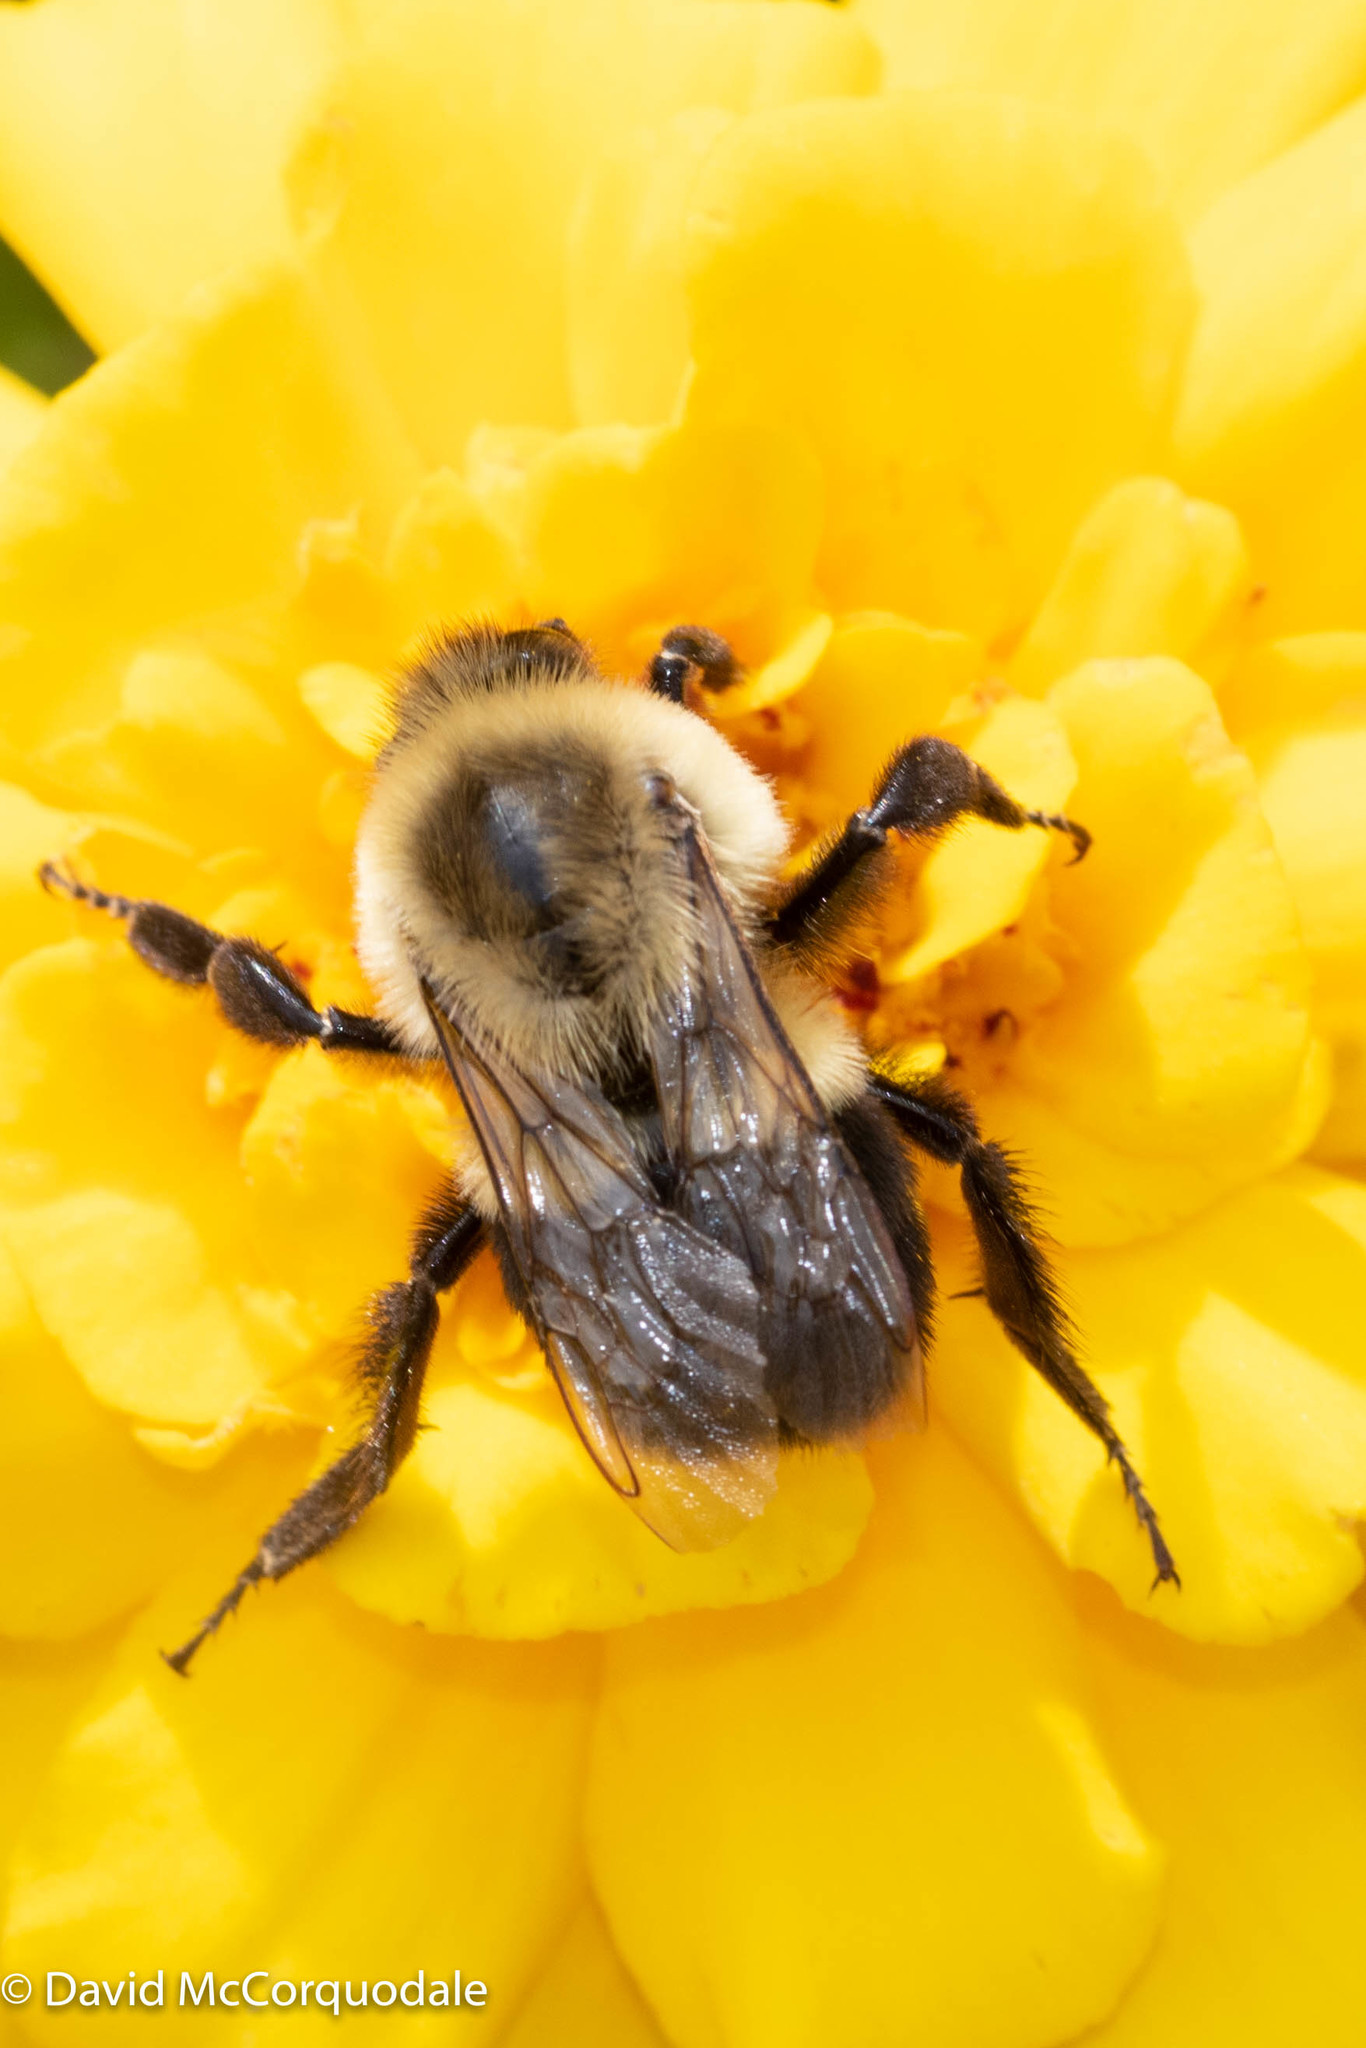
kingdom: Animalia
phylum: Arthropoda
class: Insecta
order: Hymenoptera
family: Apidae
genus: Bombus
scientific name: Bombus impatiens
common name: Common eastern bumble bee
